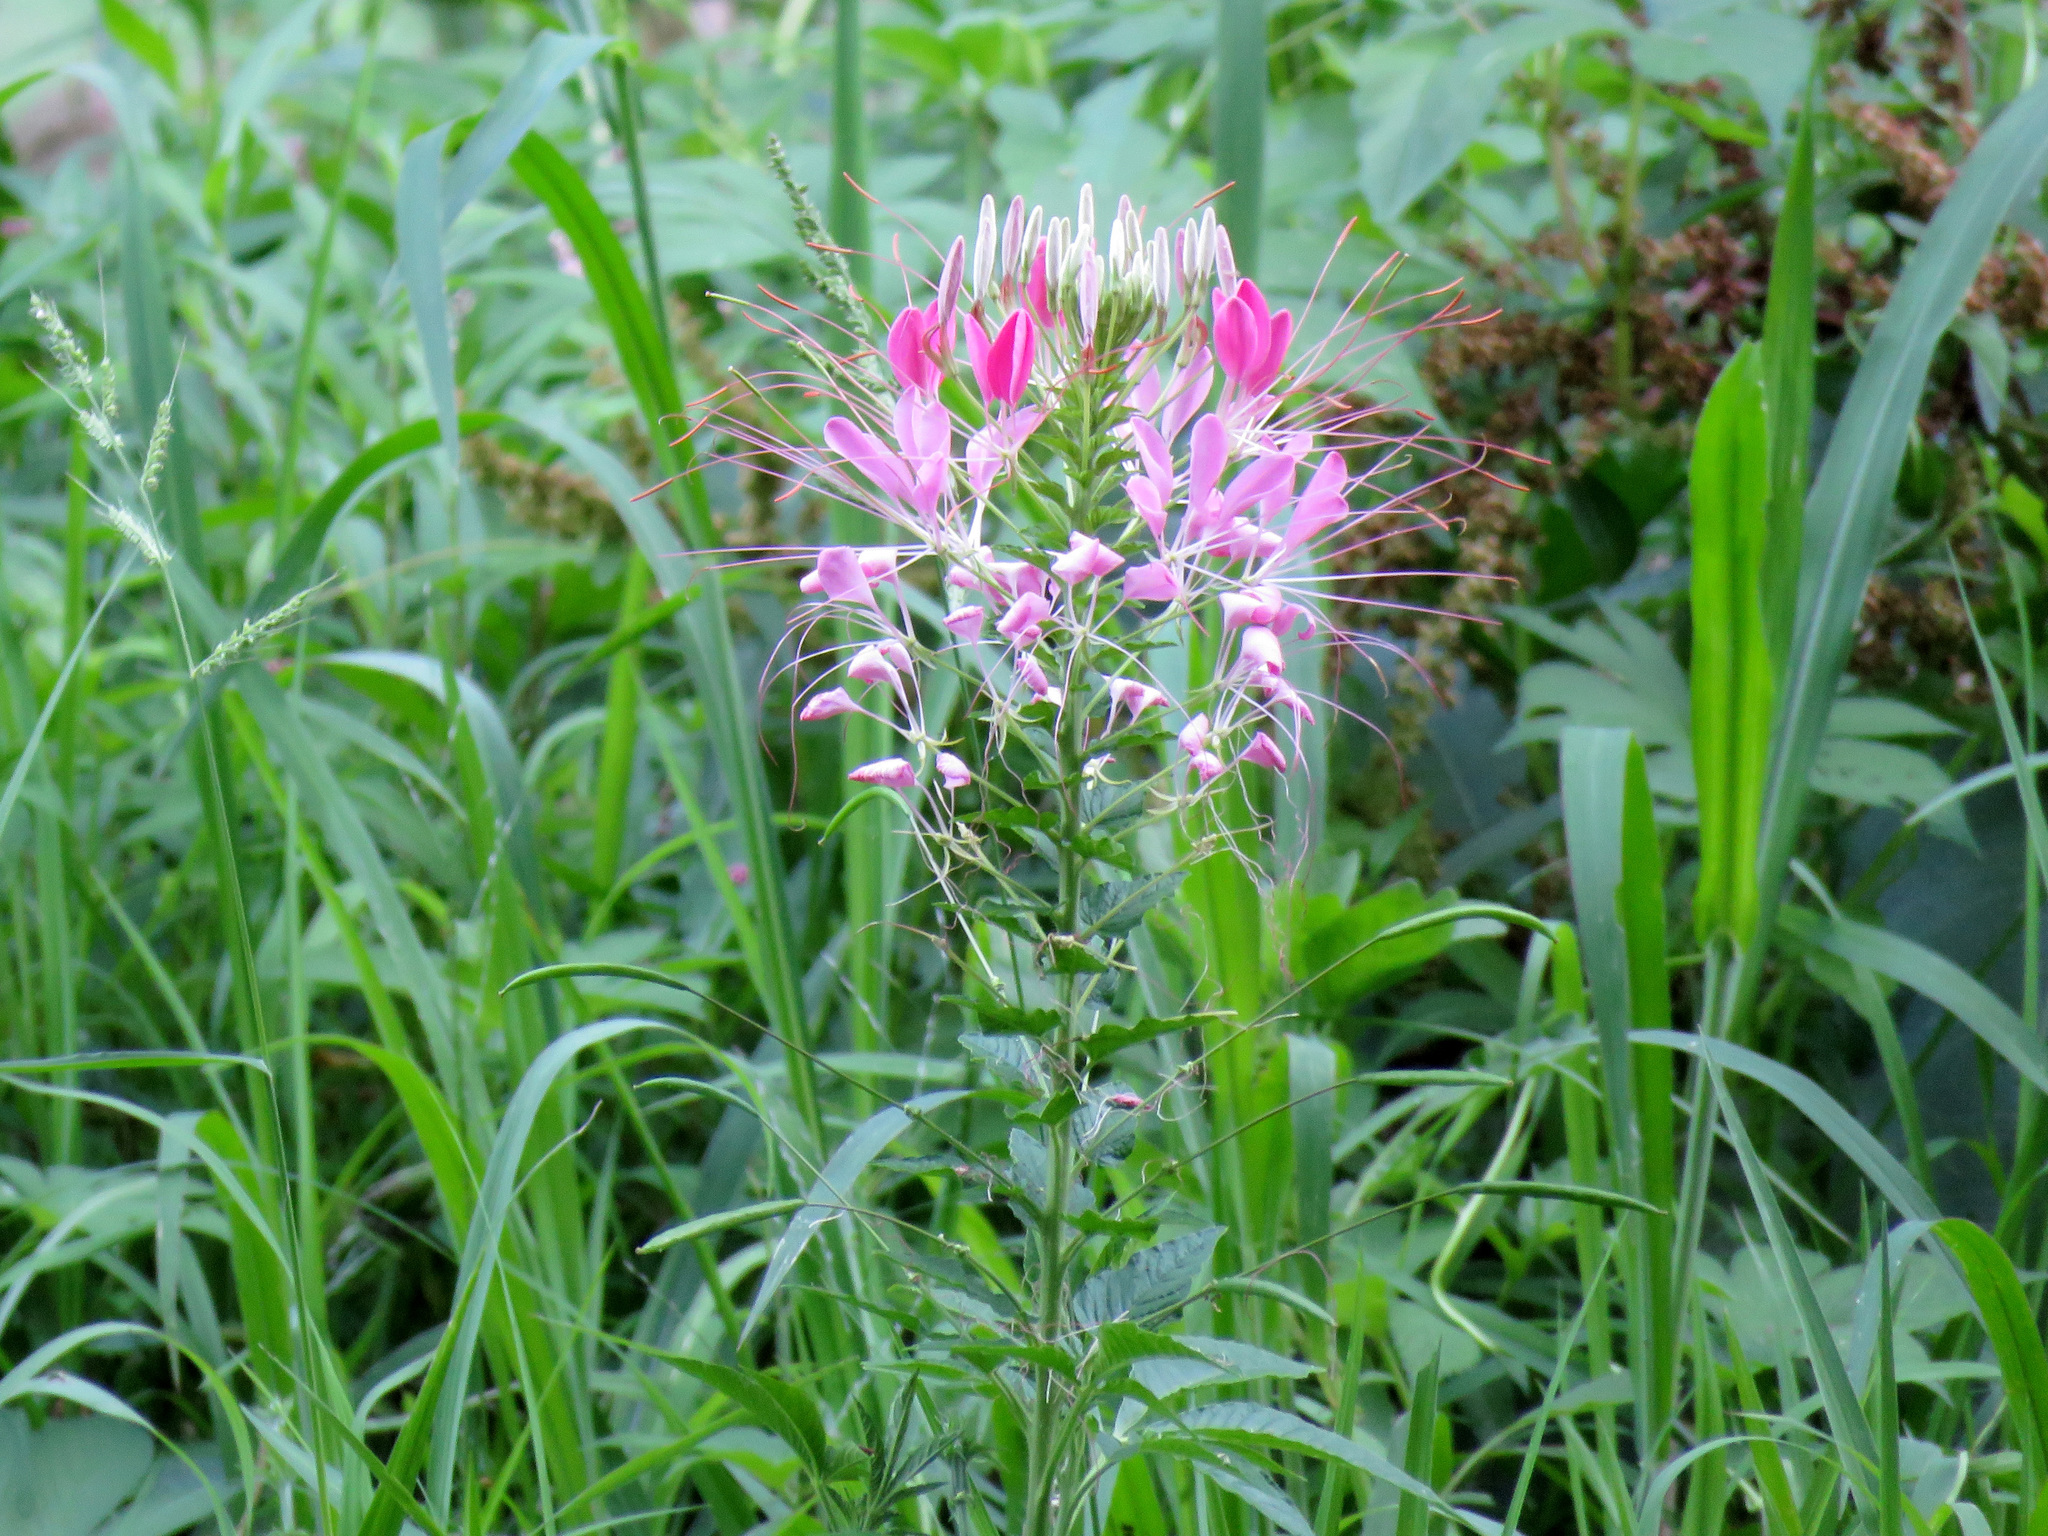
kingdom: Plantae
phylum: Tracheophyta
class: Magnoliopsida
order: Brassicales
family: Cleomaceae
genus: Tarenaya
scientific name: Tarenaya houtteana
